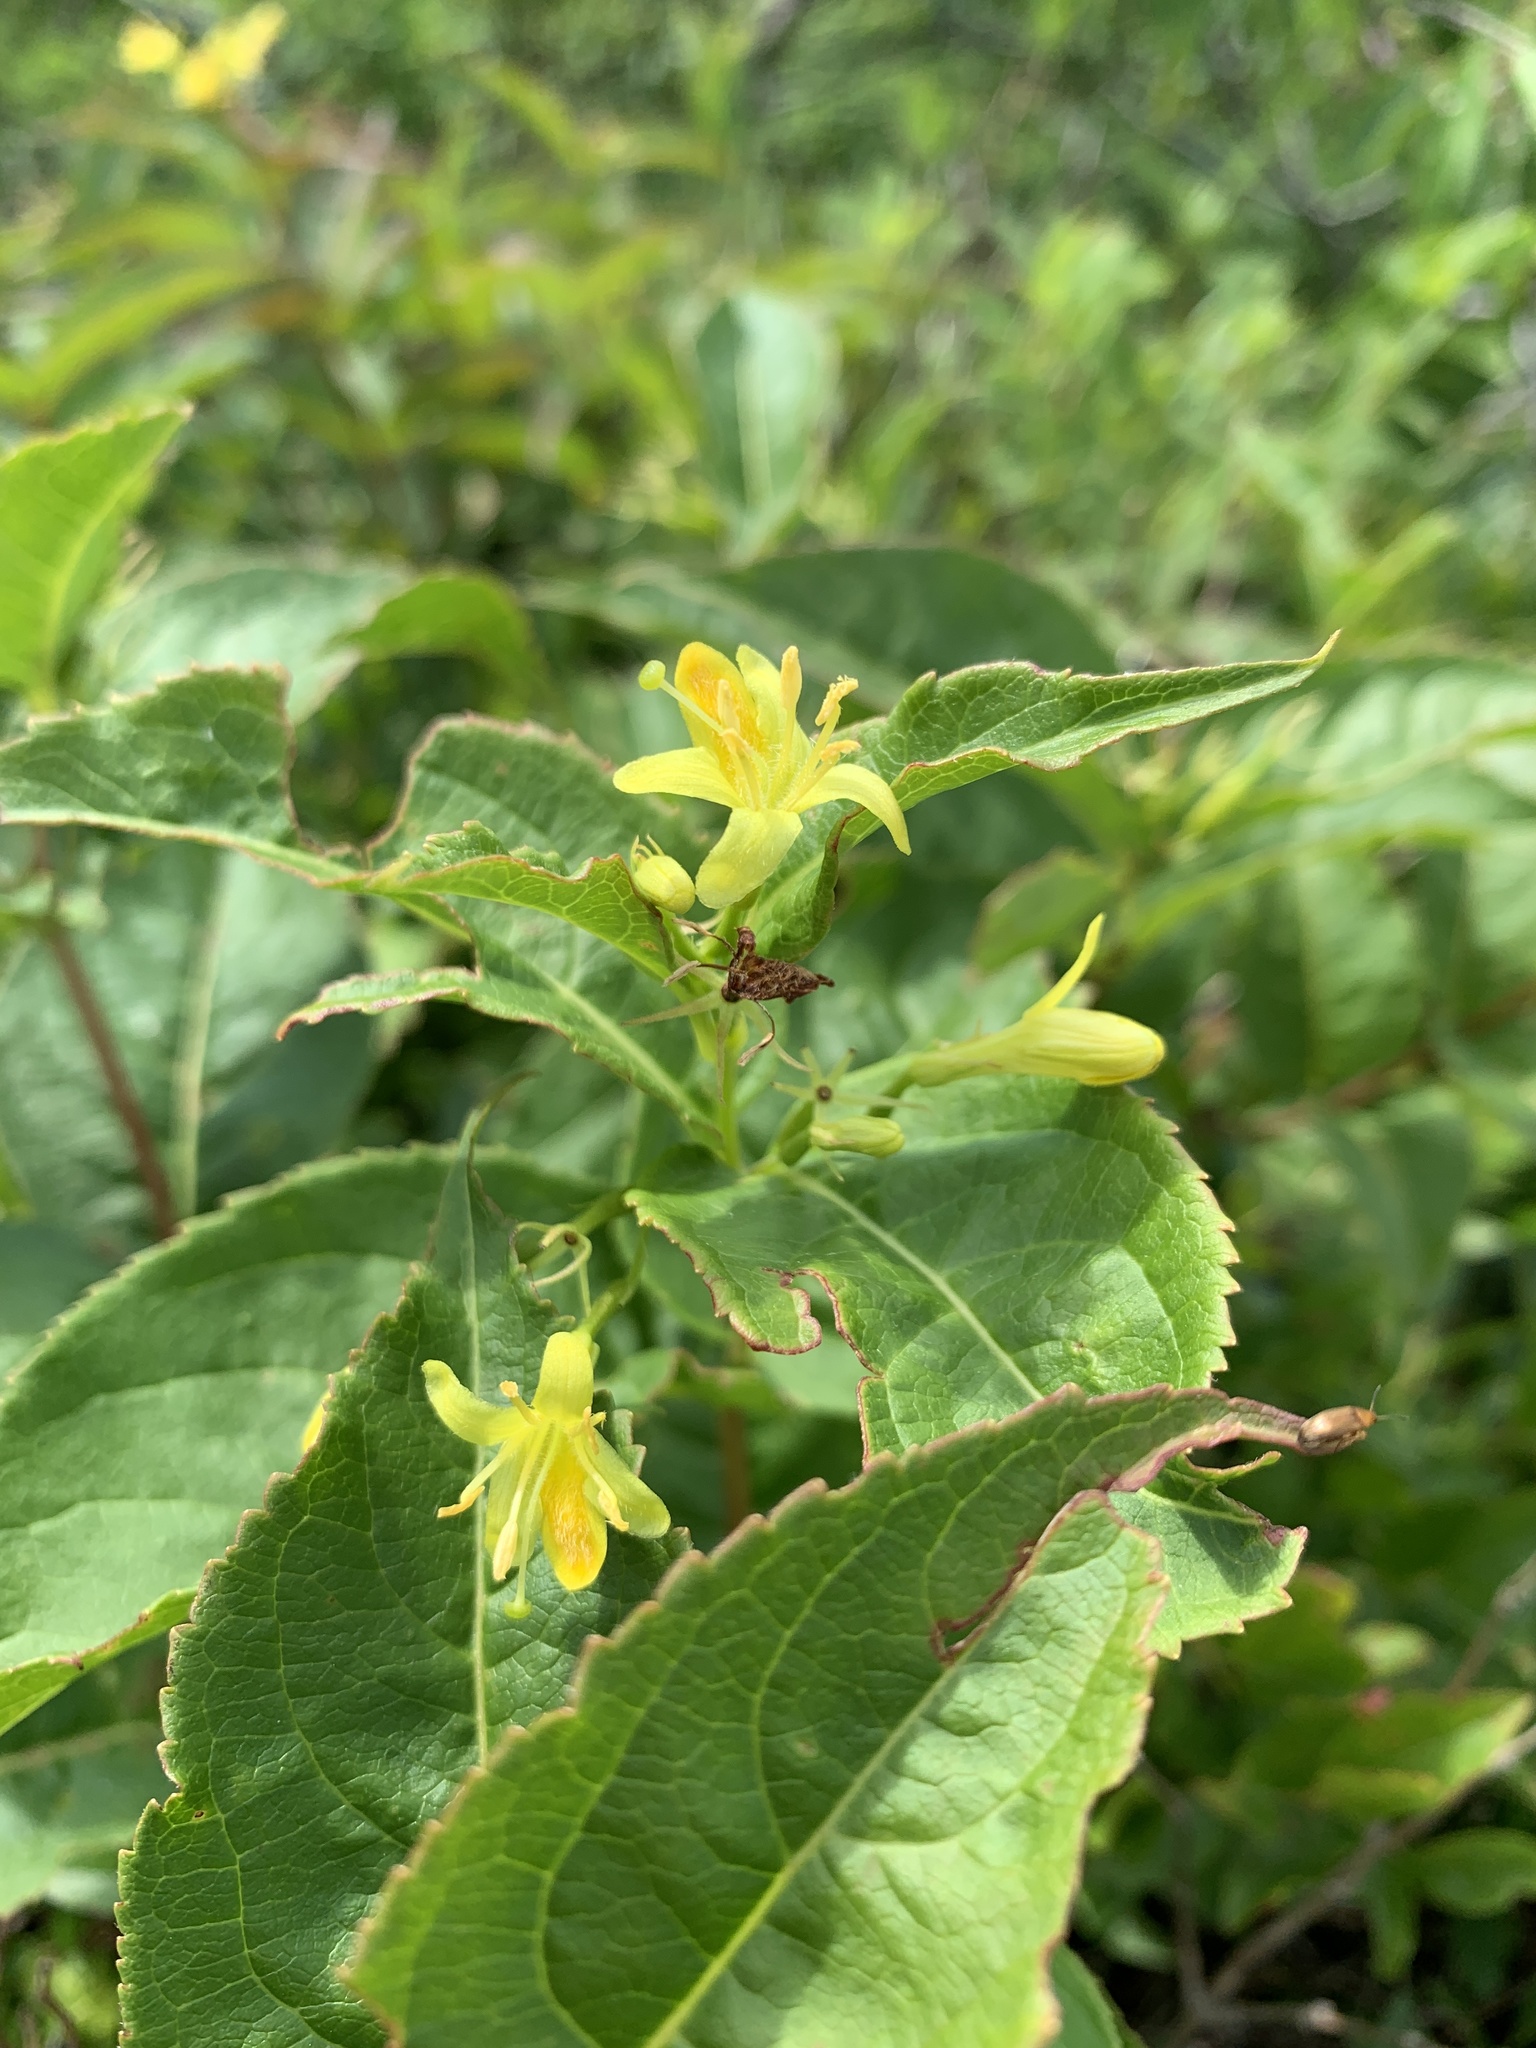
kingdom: Plantae
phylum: Tracheophyta
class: Magnoliopsida
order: Dipsacales
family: Caprifoliaceae
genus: Diervilla
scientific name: Diervilla lonicera
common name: Bush-honeysuckle
